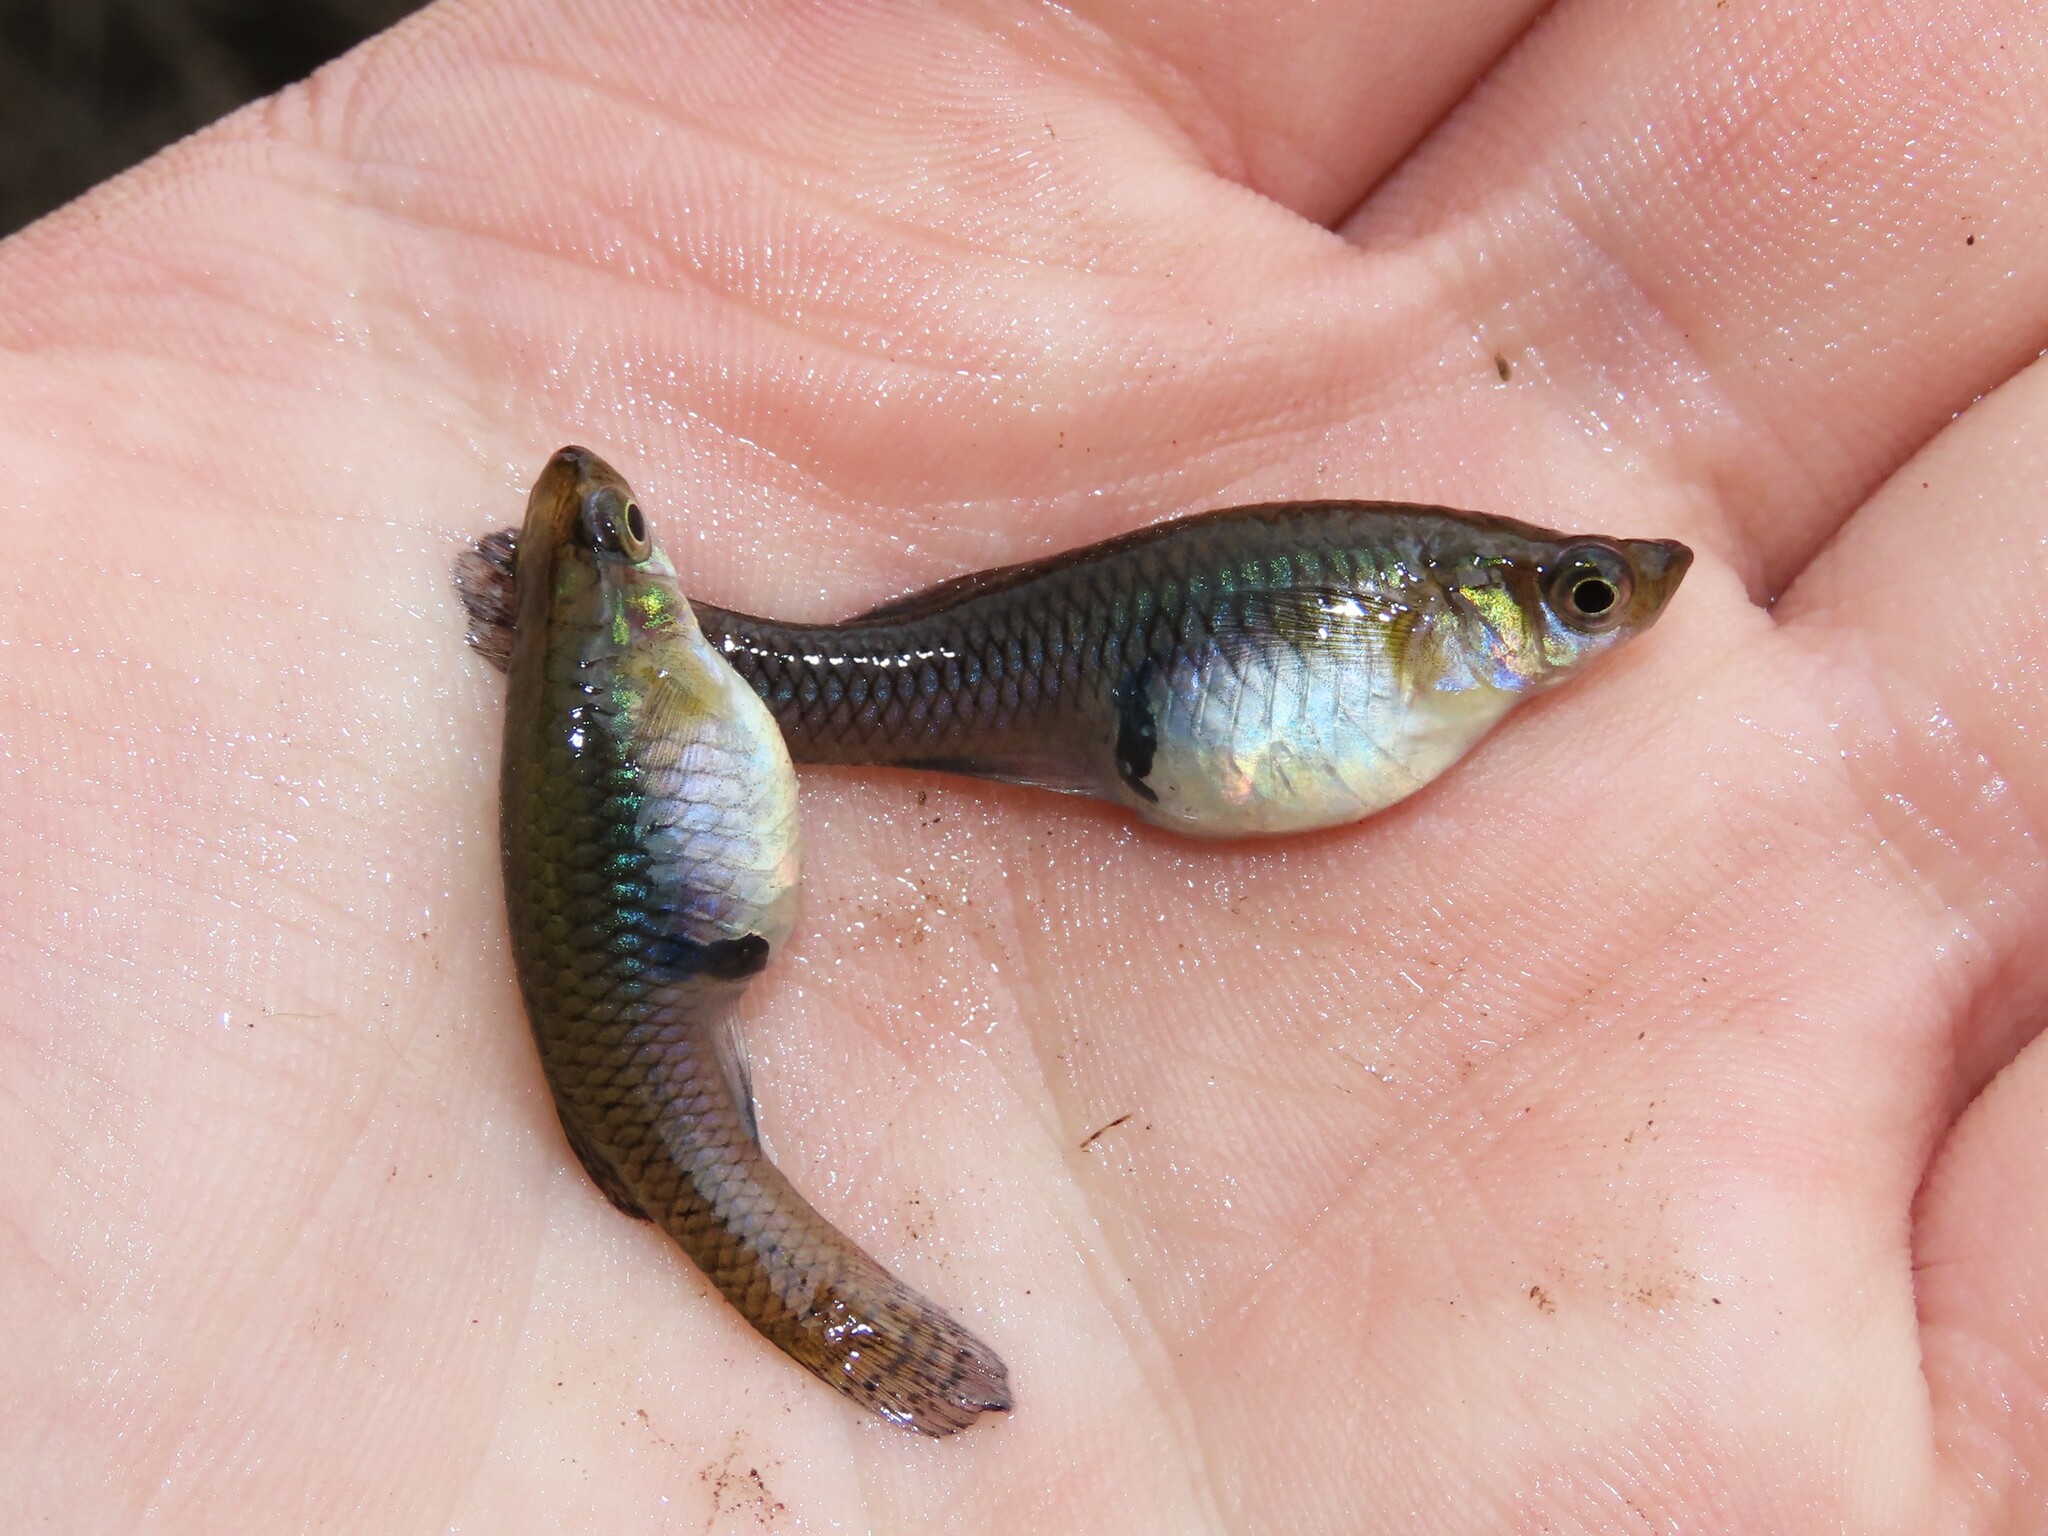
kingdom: Animalia
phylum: Chordata
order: Cyprinodontiformes
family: Poeciliidae
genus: Gambusia
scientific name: Gambusia holbrooki
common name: Eastern mosquitofish
